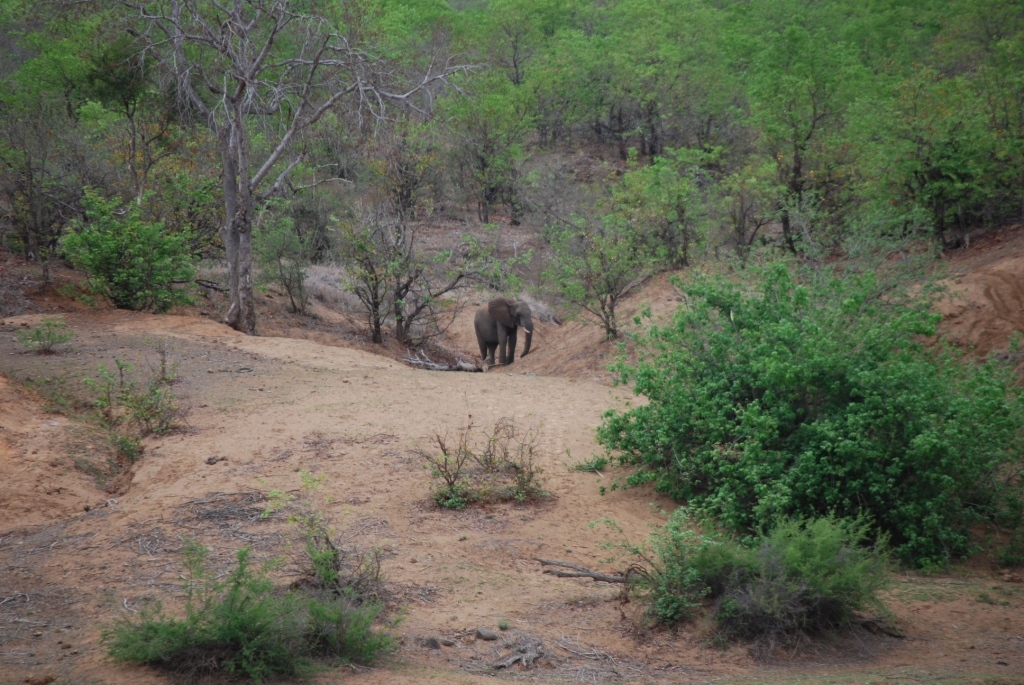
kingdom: Animalia
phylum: Chordata
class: Mammalia
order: Proboscidea
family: Elephantidae
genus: Loxodonta
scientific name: Loxodonta africana
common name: African elephant
